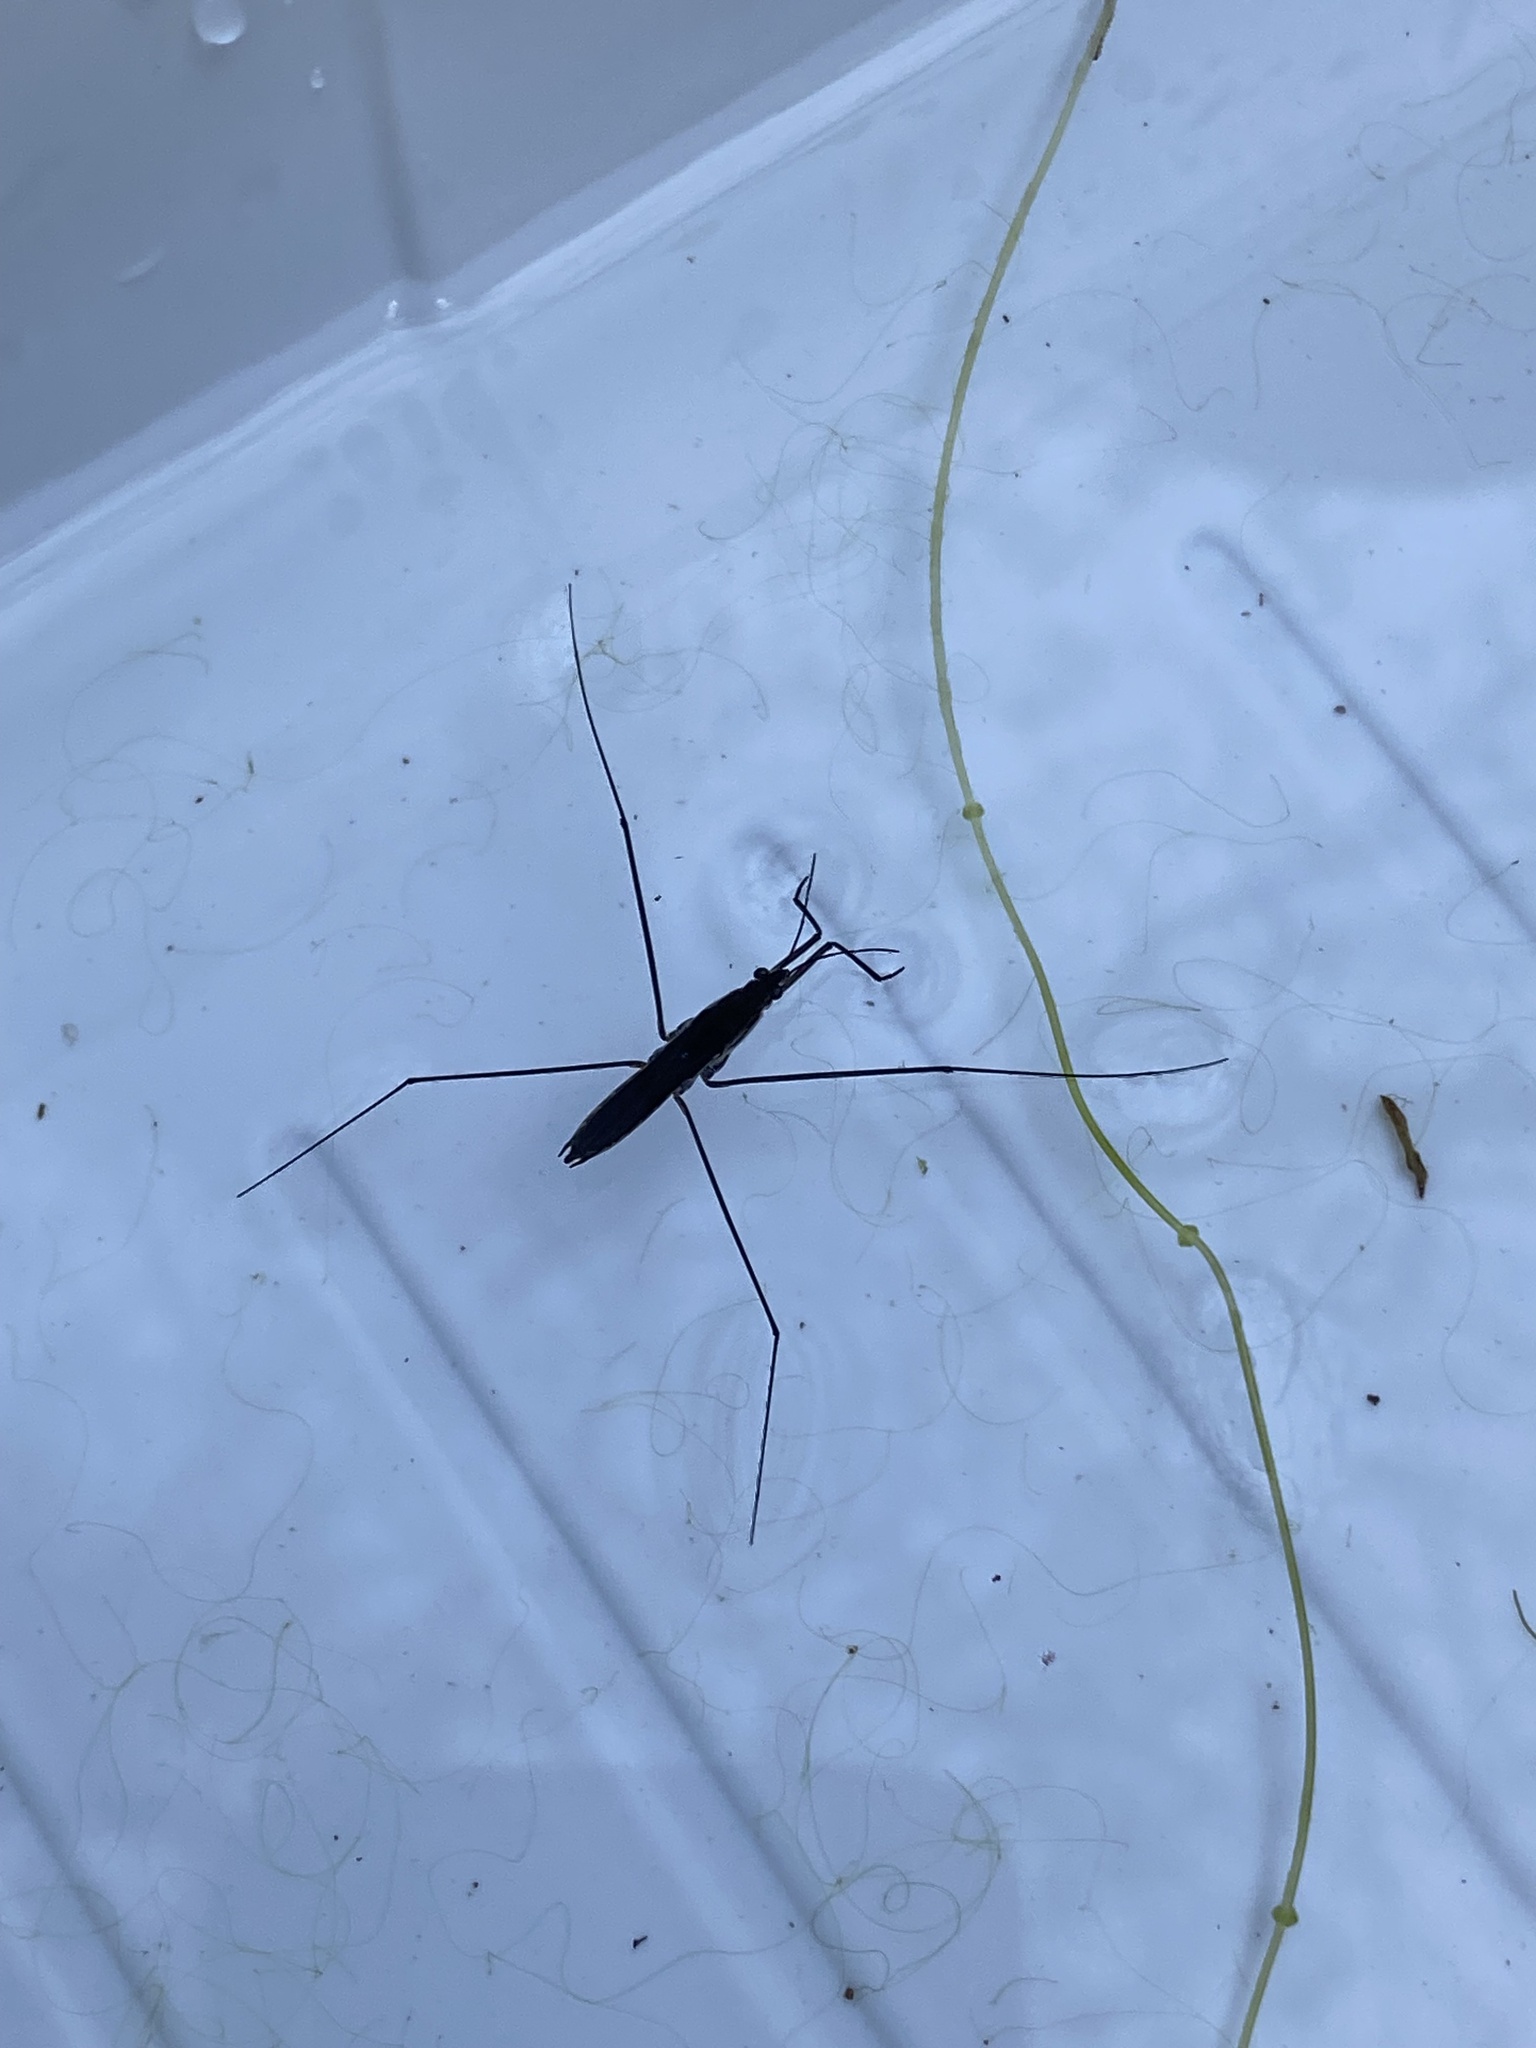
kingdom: Animalia
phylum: Arthropoda
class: Insecta
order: Hemiptera
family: Gerridae
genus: Aquarius
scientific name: Aquarius paludum
